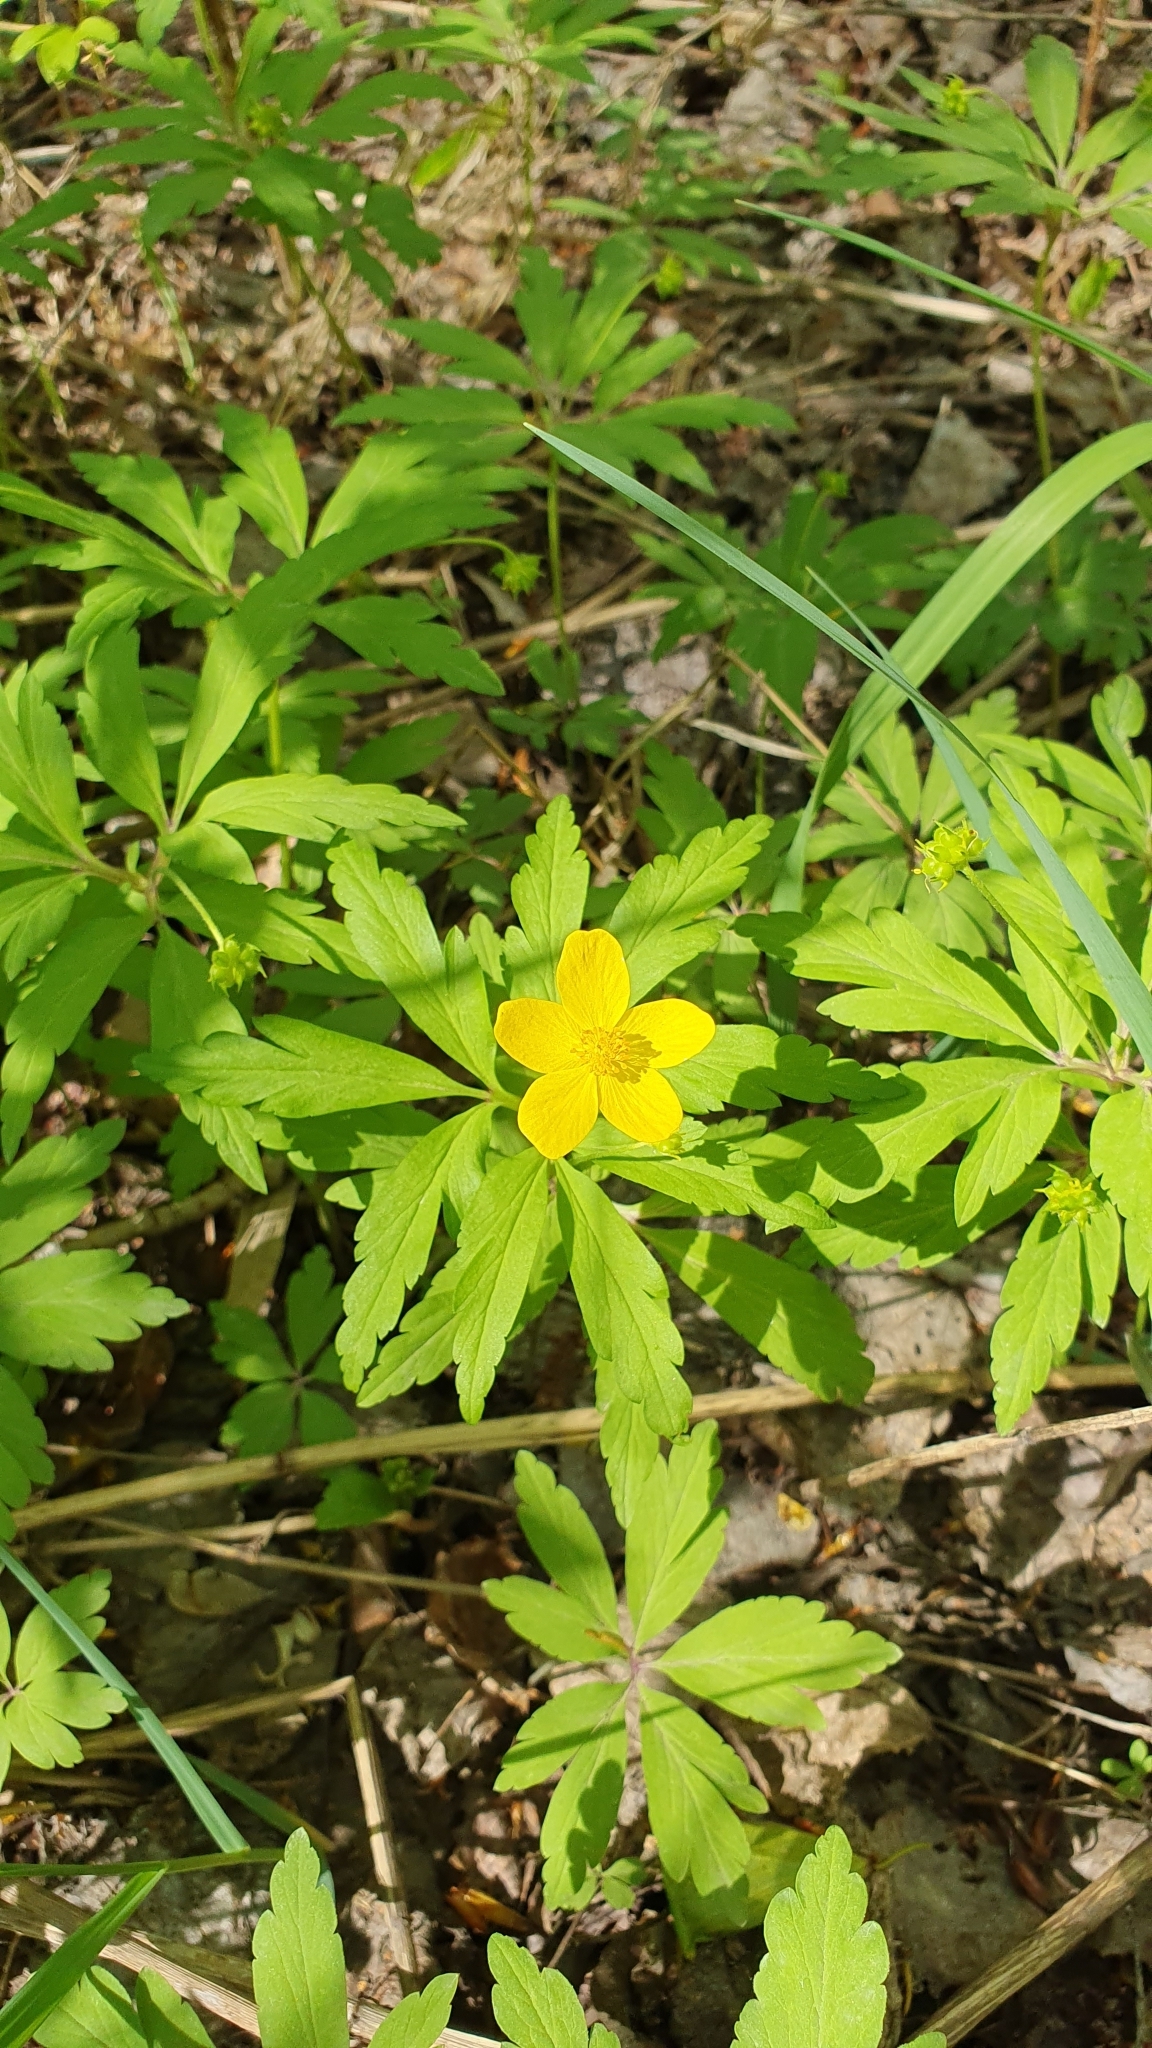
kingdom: Plantae
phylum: Tracheophyta
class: Magnoliopsida
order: Ranunculales
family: Ranunculaceae
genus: Anemone
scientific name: Anemone ranunculoides
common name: Yellow anemone
